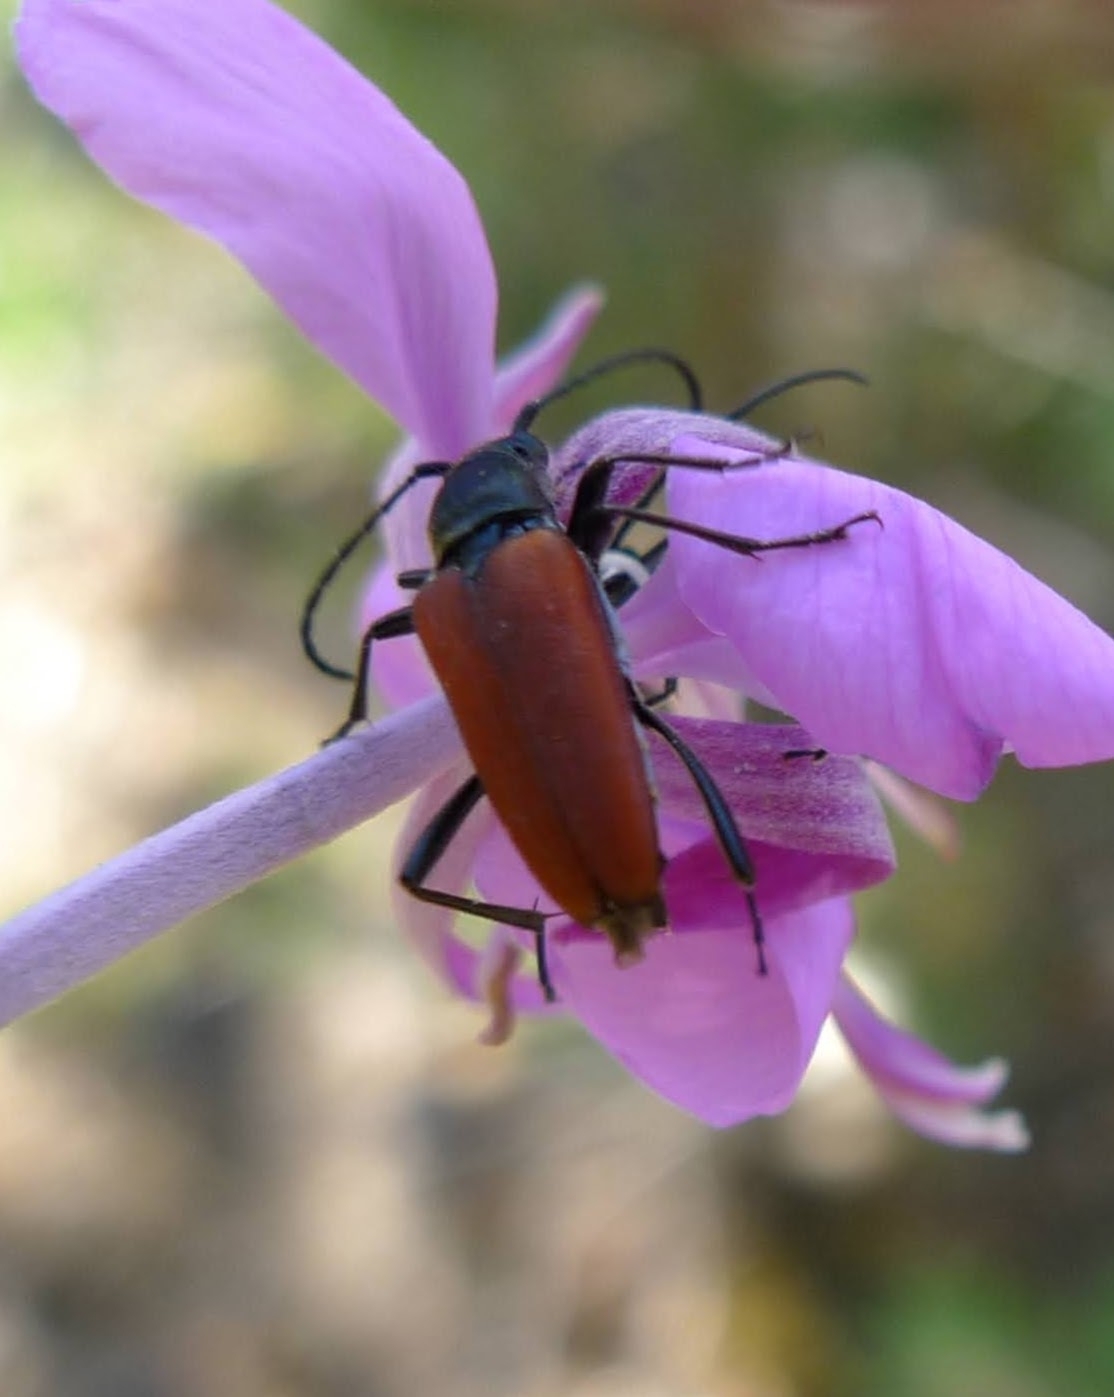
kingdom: Animalia
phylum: Arthropoda
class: Insecta
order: Coleoptera
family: Cerambycidae
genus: Anastrangalia
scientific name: Anastrangalia sanguinolenta
